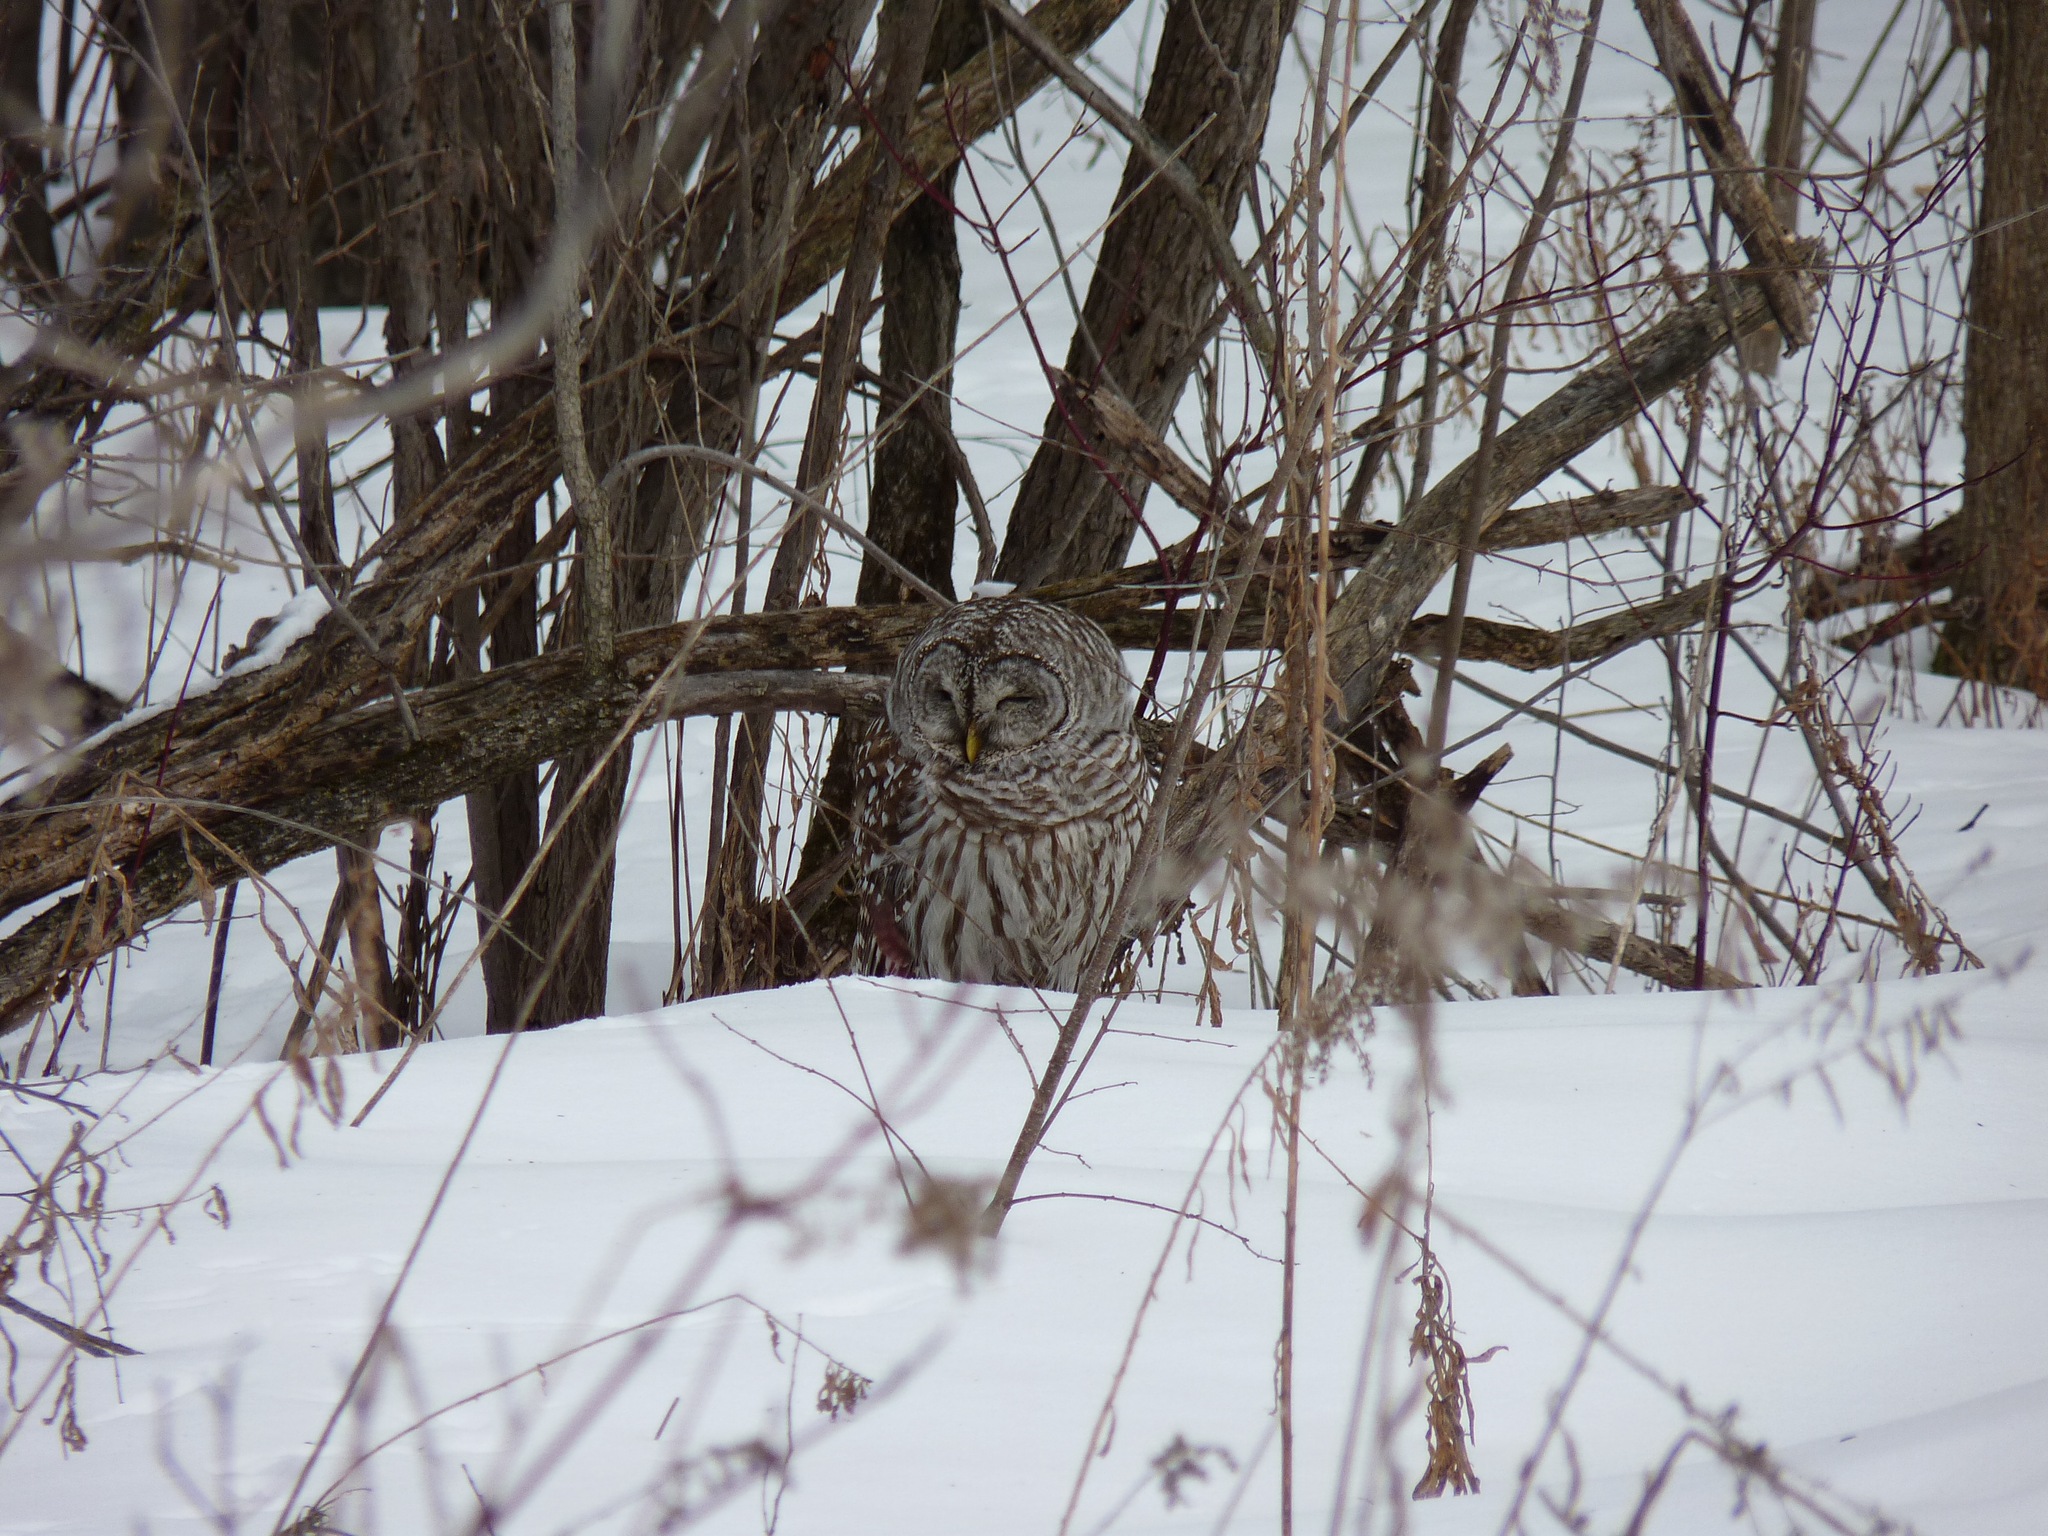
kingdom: Animalia
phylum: Chordata
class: Aves
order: Strigiformes
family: Strigidae
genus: Strix
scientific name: Strix varia
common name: Barred owl
